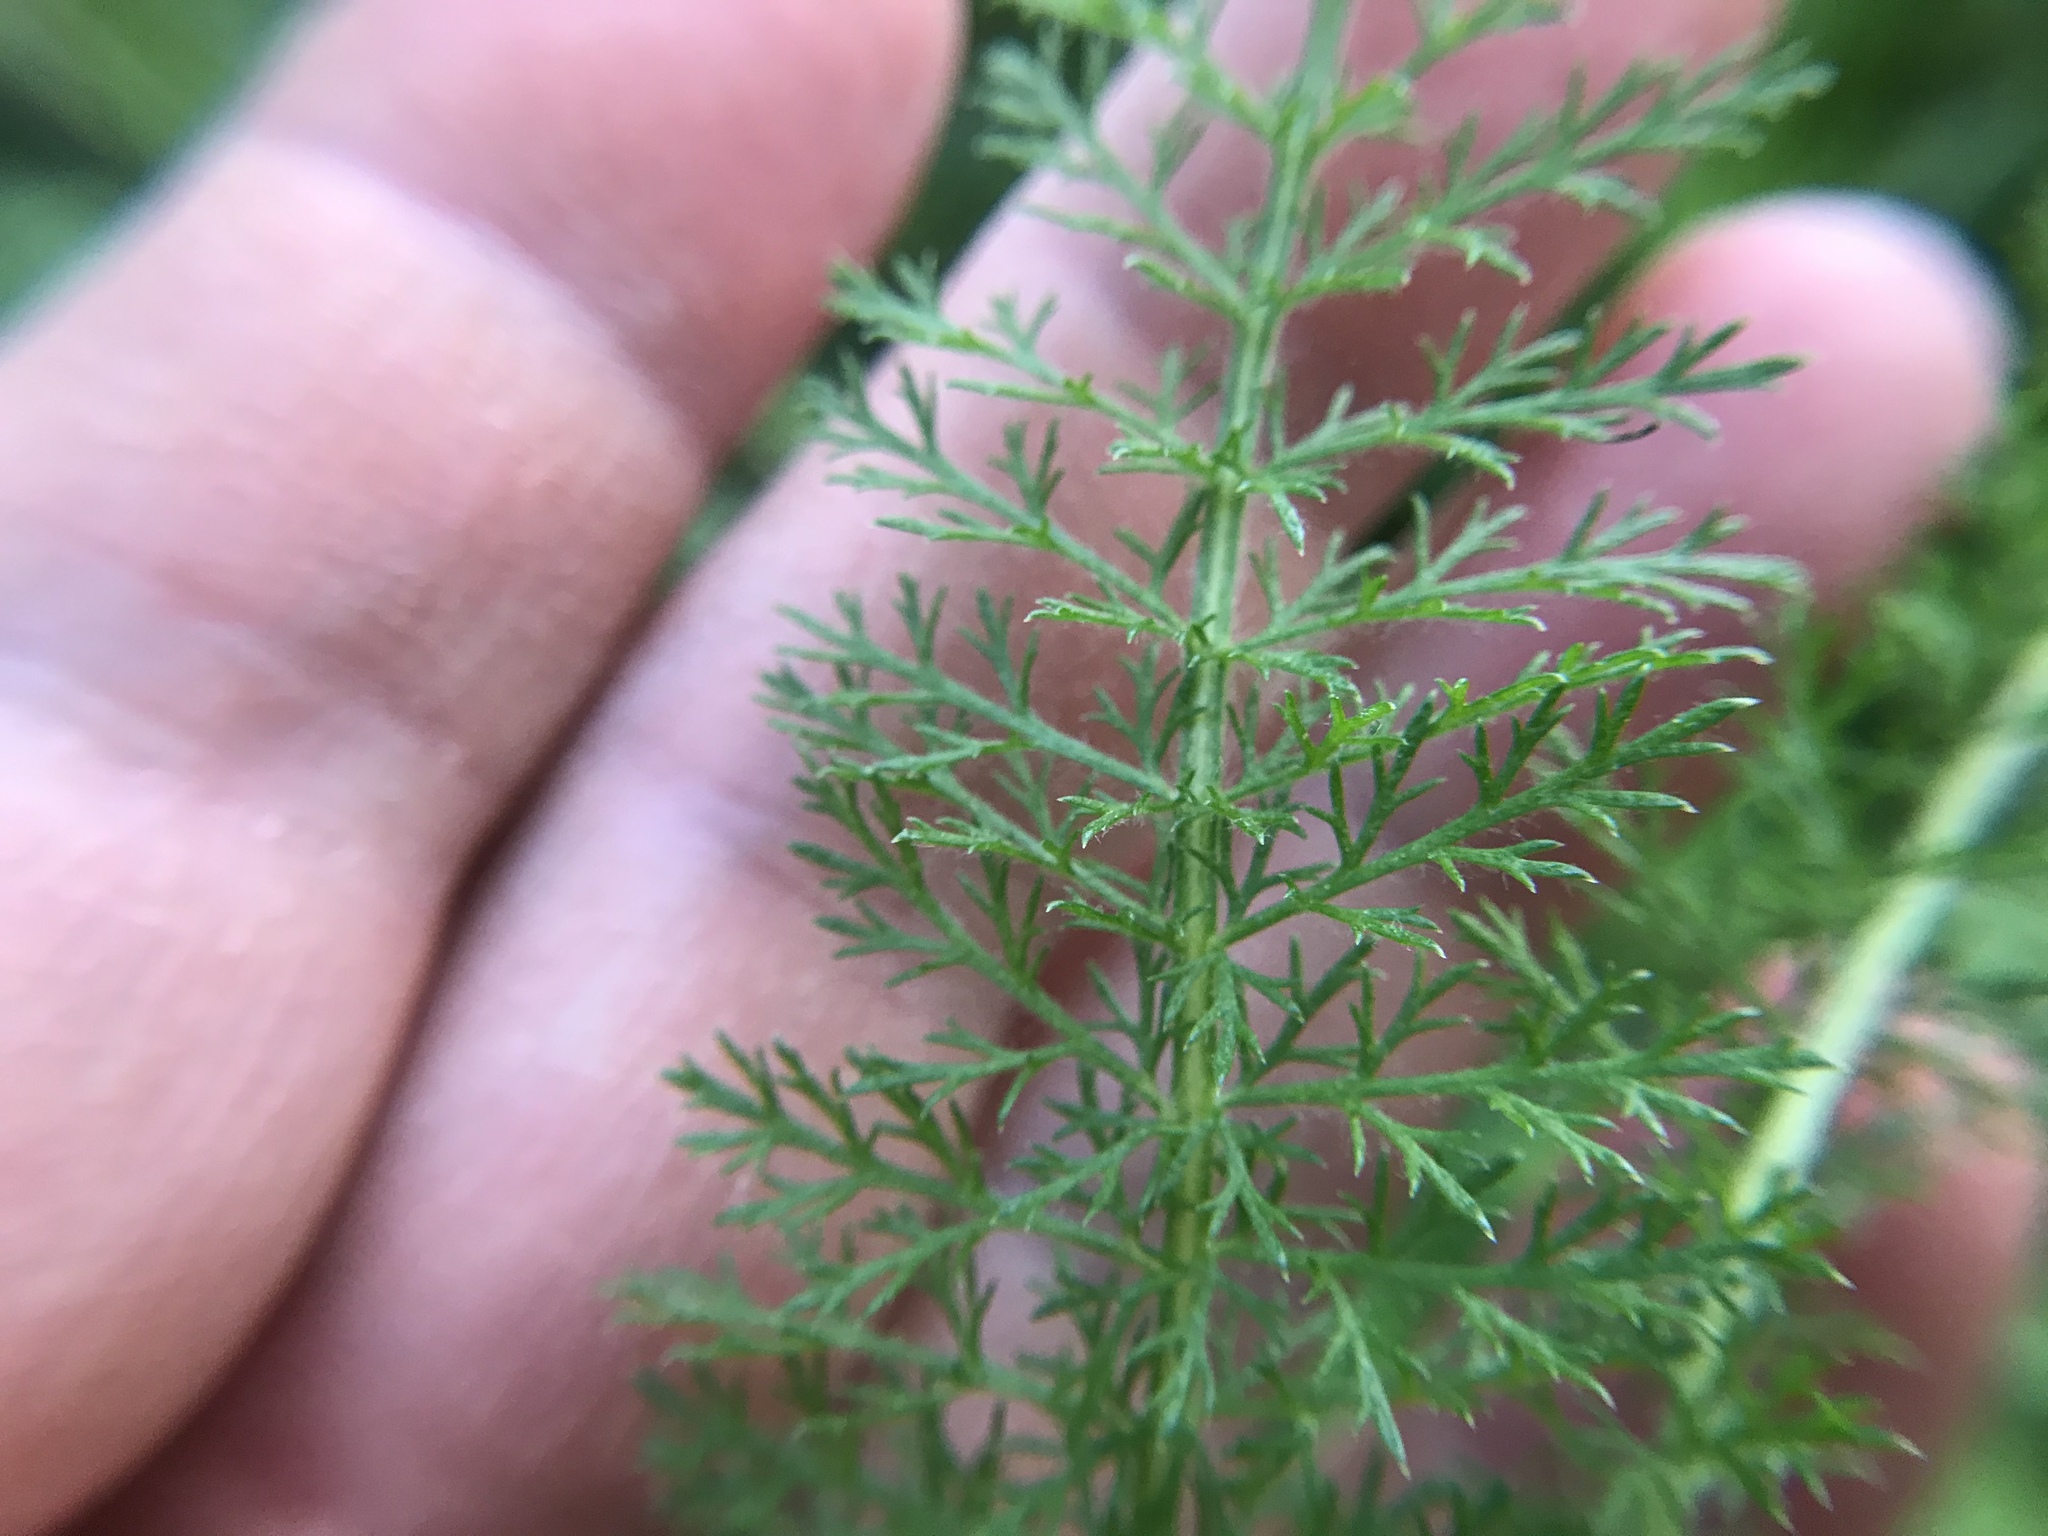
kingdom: Plantae
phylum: Tracheophyta
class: Magnoliopsida
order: Asterales
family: Asteraceae
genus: Achillea
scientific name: Achillea millefolium
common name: Yarrow
